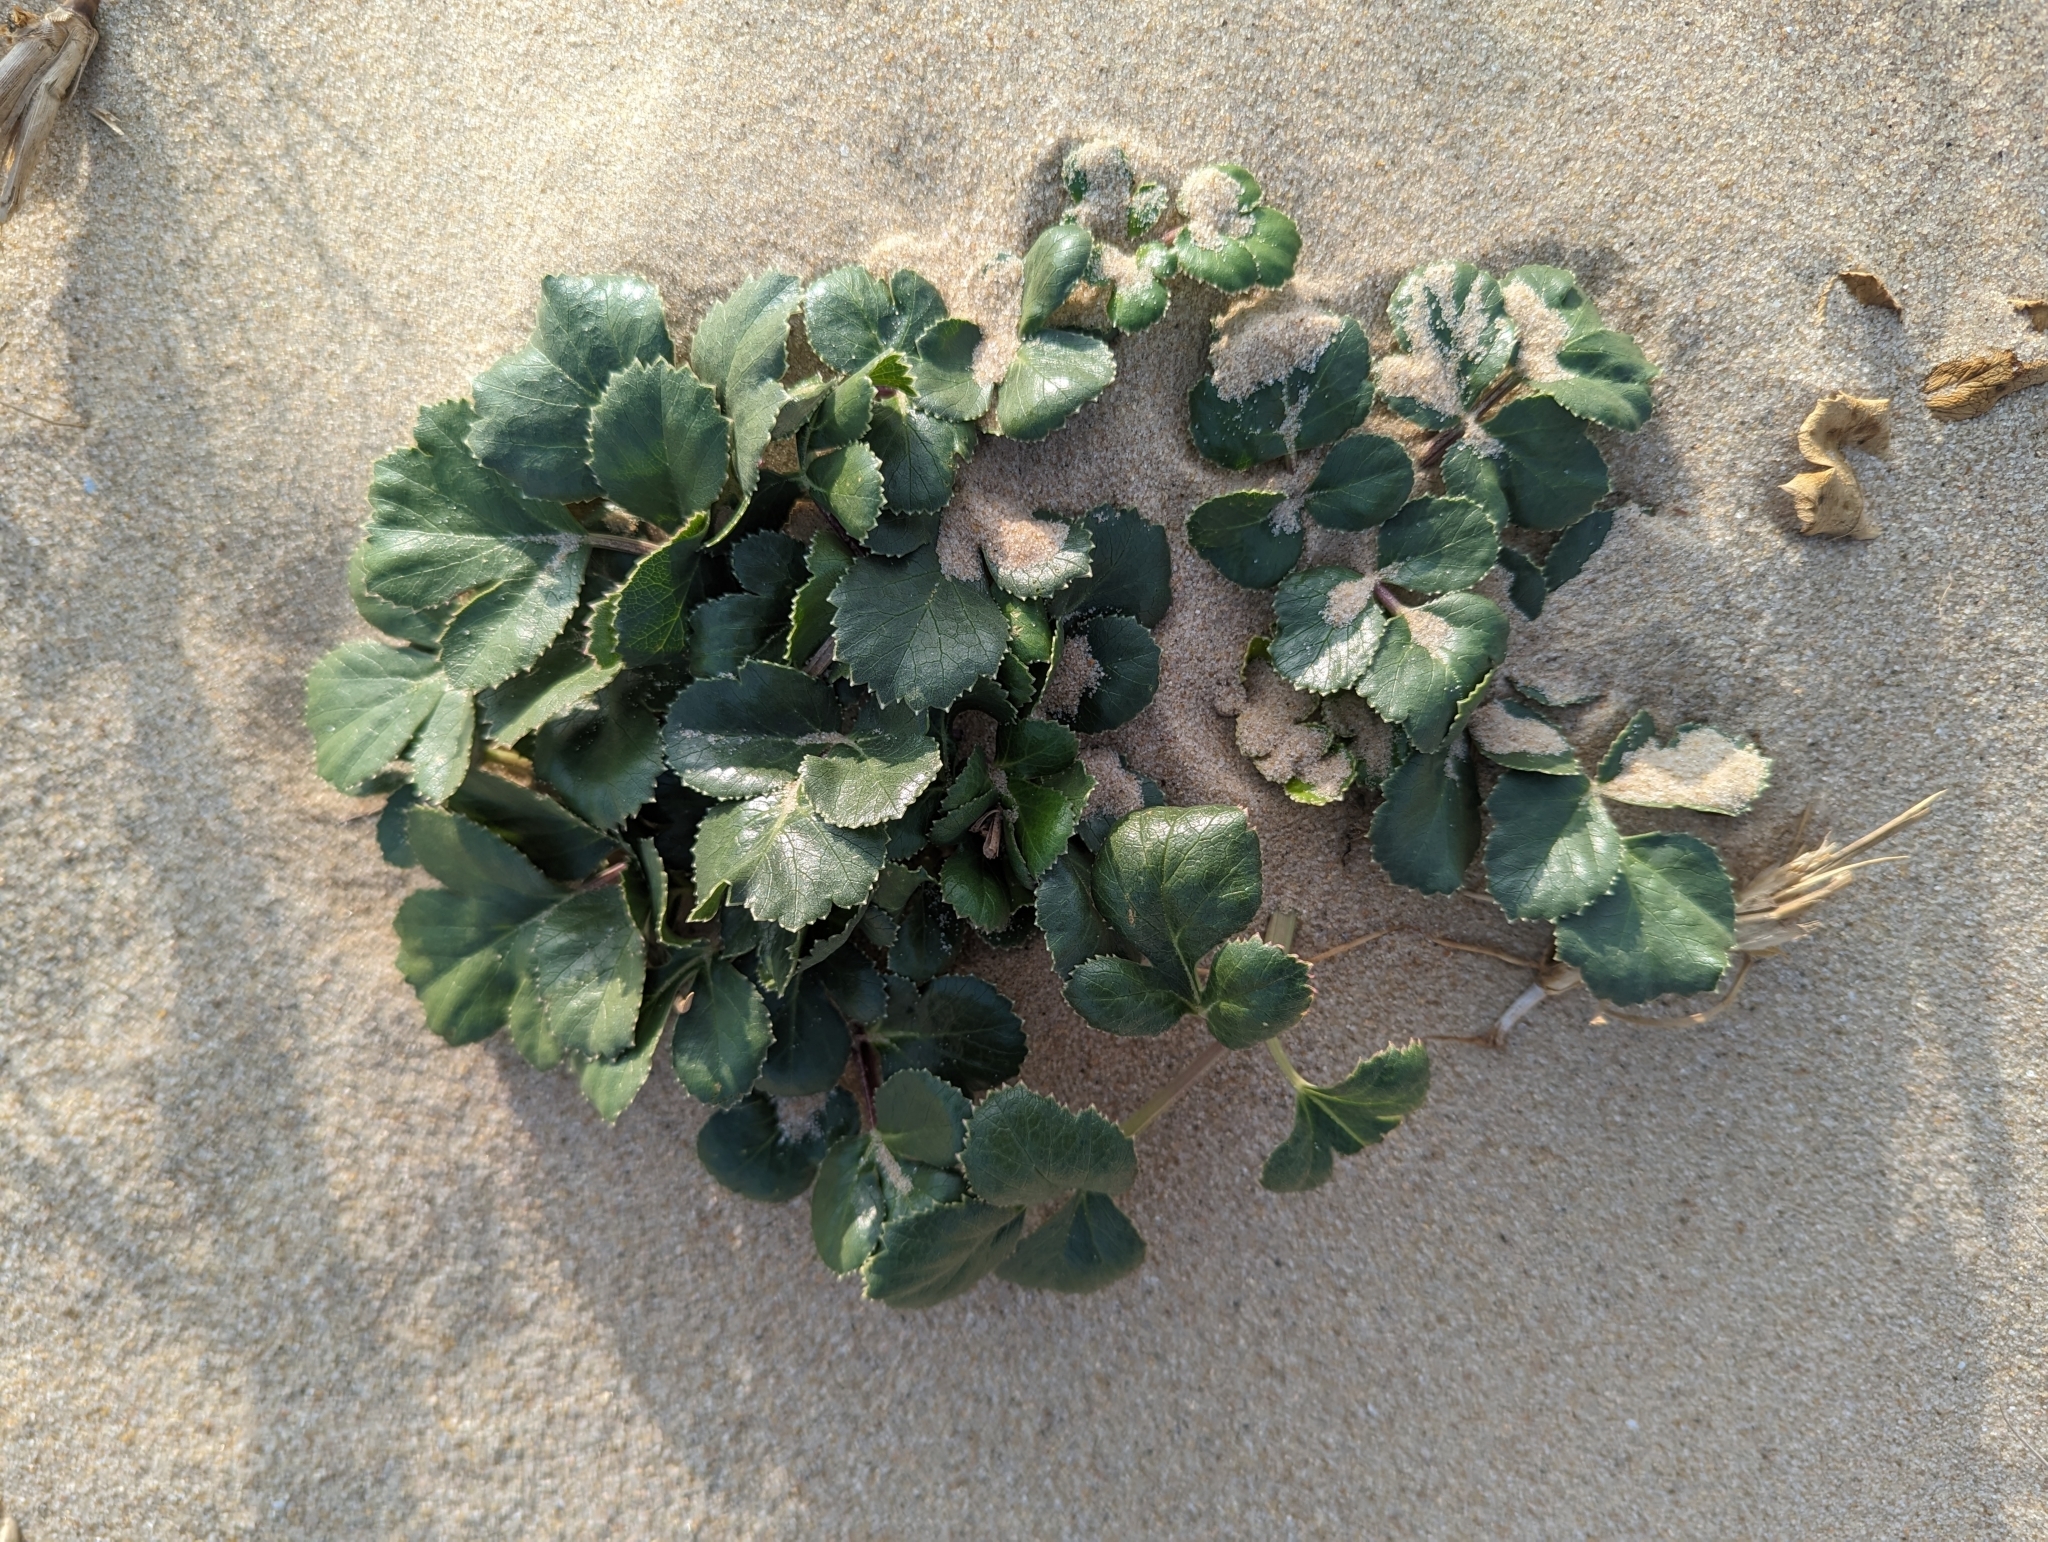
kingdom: Plantae
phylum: Tracheophyta
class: Magnoliopsida
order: Apiales
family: Apiaceae
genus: Glehnia
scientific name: Glehnia littoralis
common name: Beach silvertop
